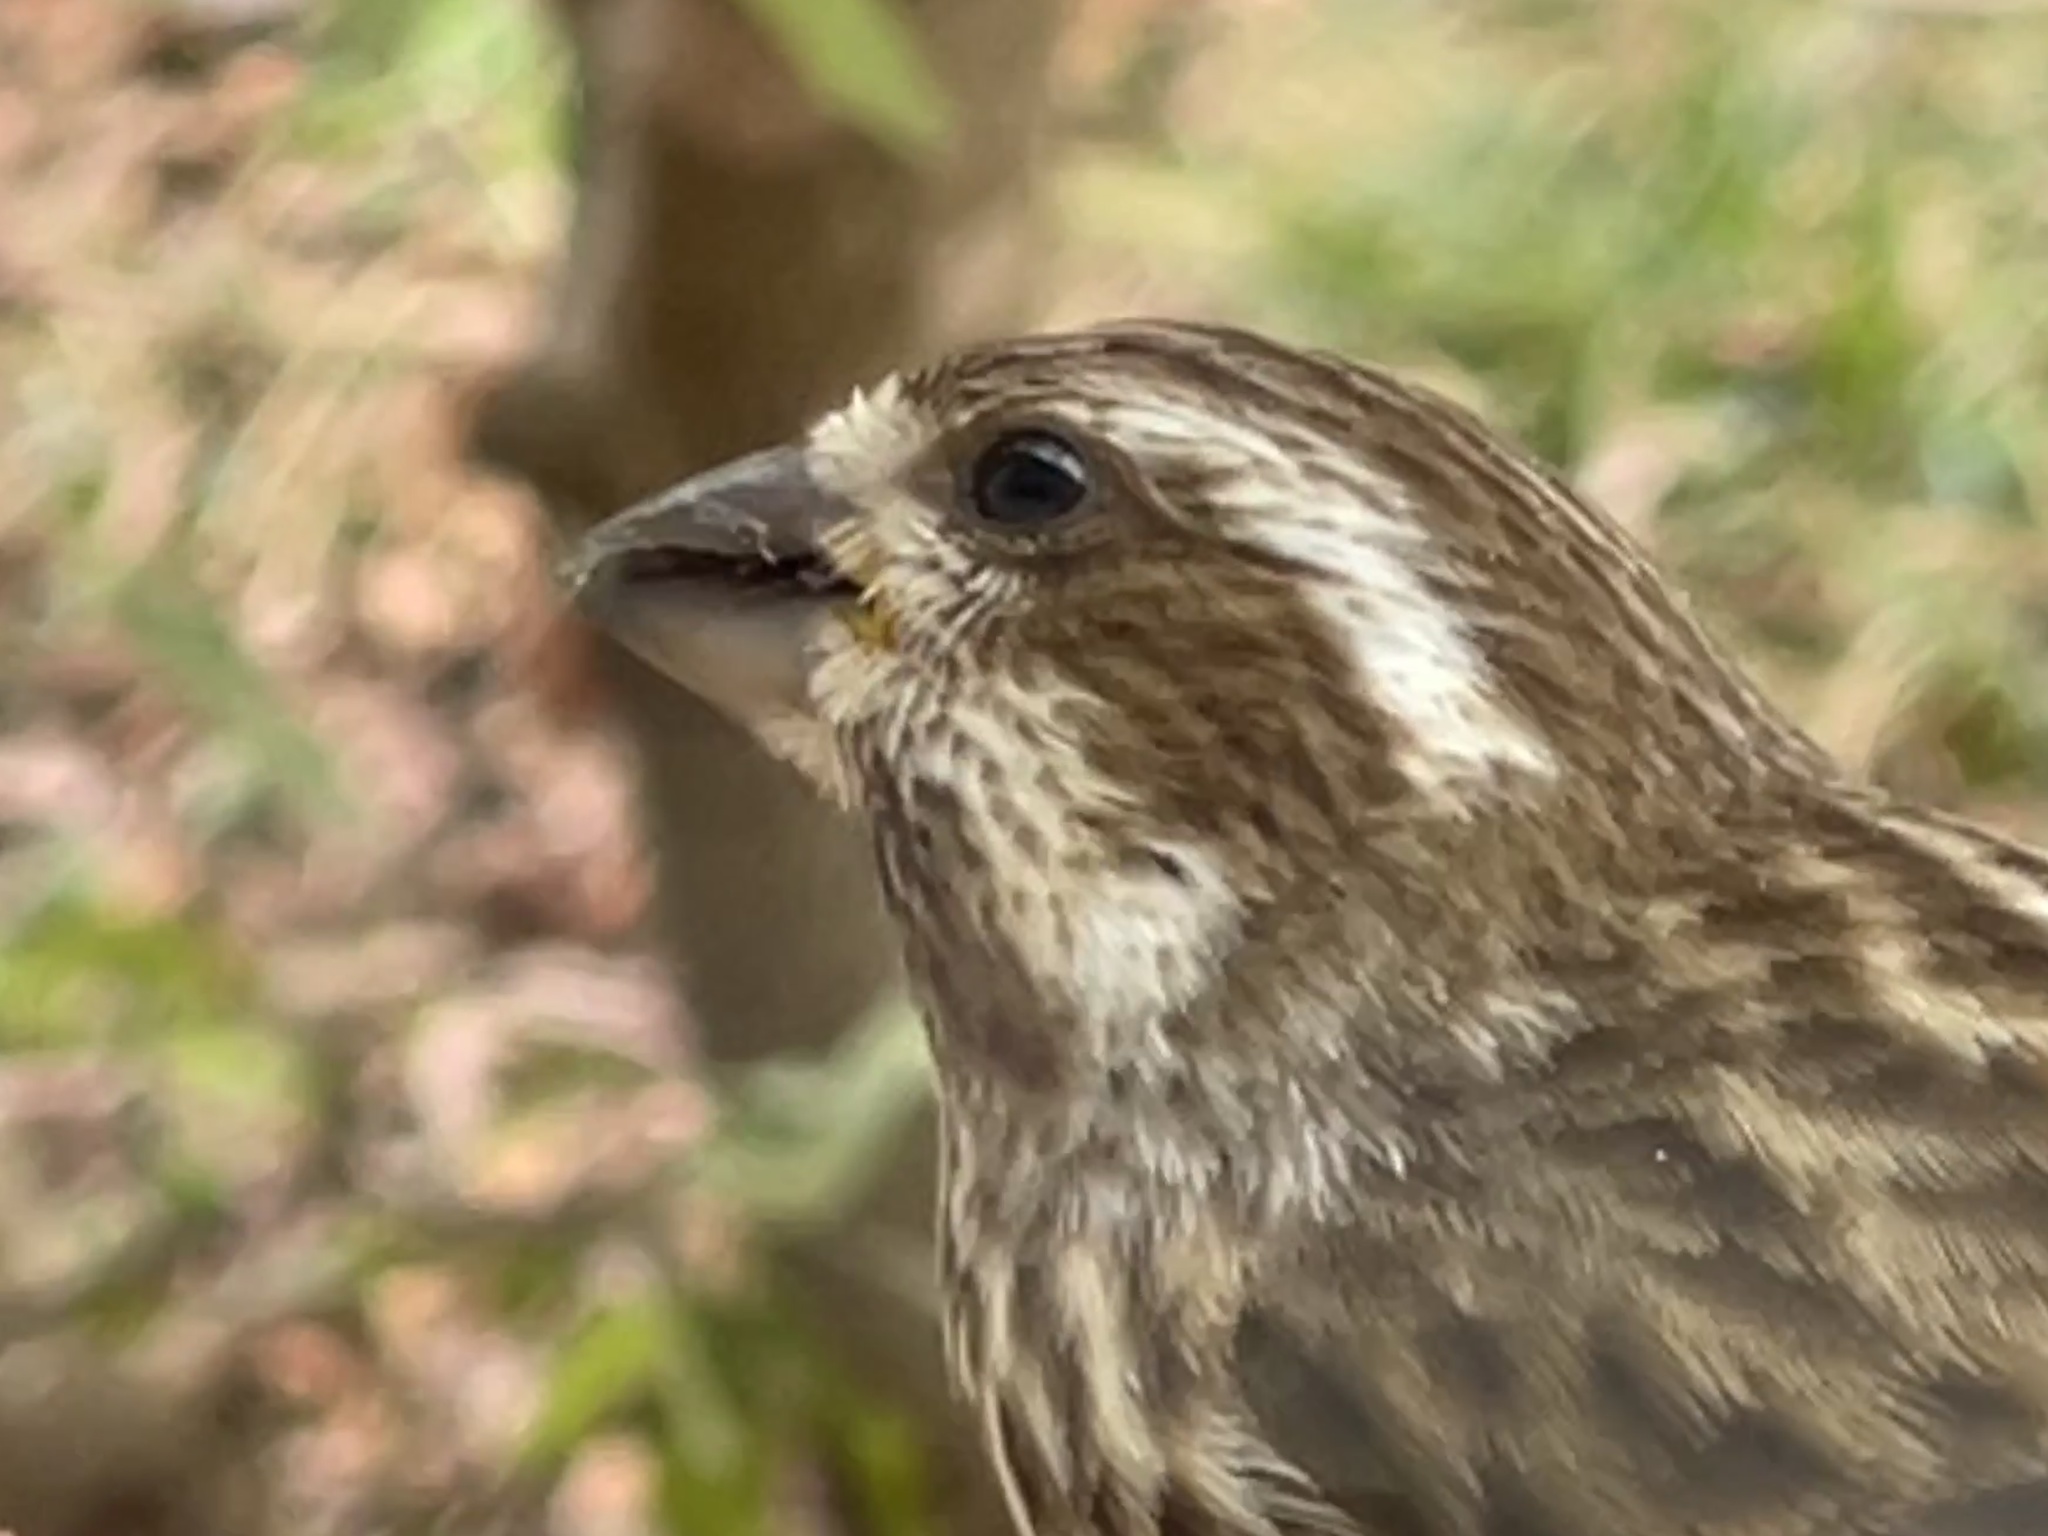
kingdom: Animalia
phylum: Chordata
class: Aves
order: Passeriformes
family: Fringillidae
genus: Haemorhous
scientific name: Haemorhous purpureus
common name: Purple finch
